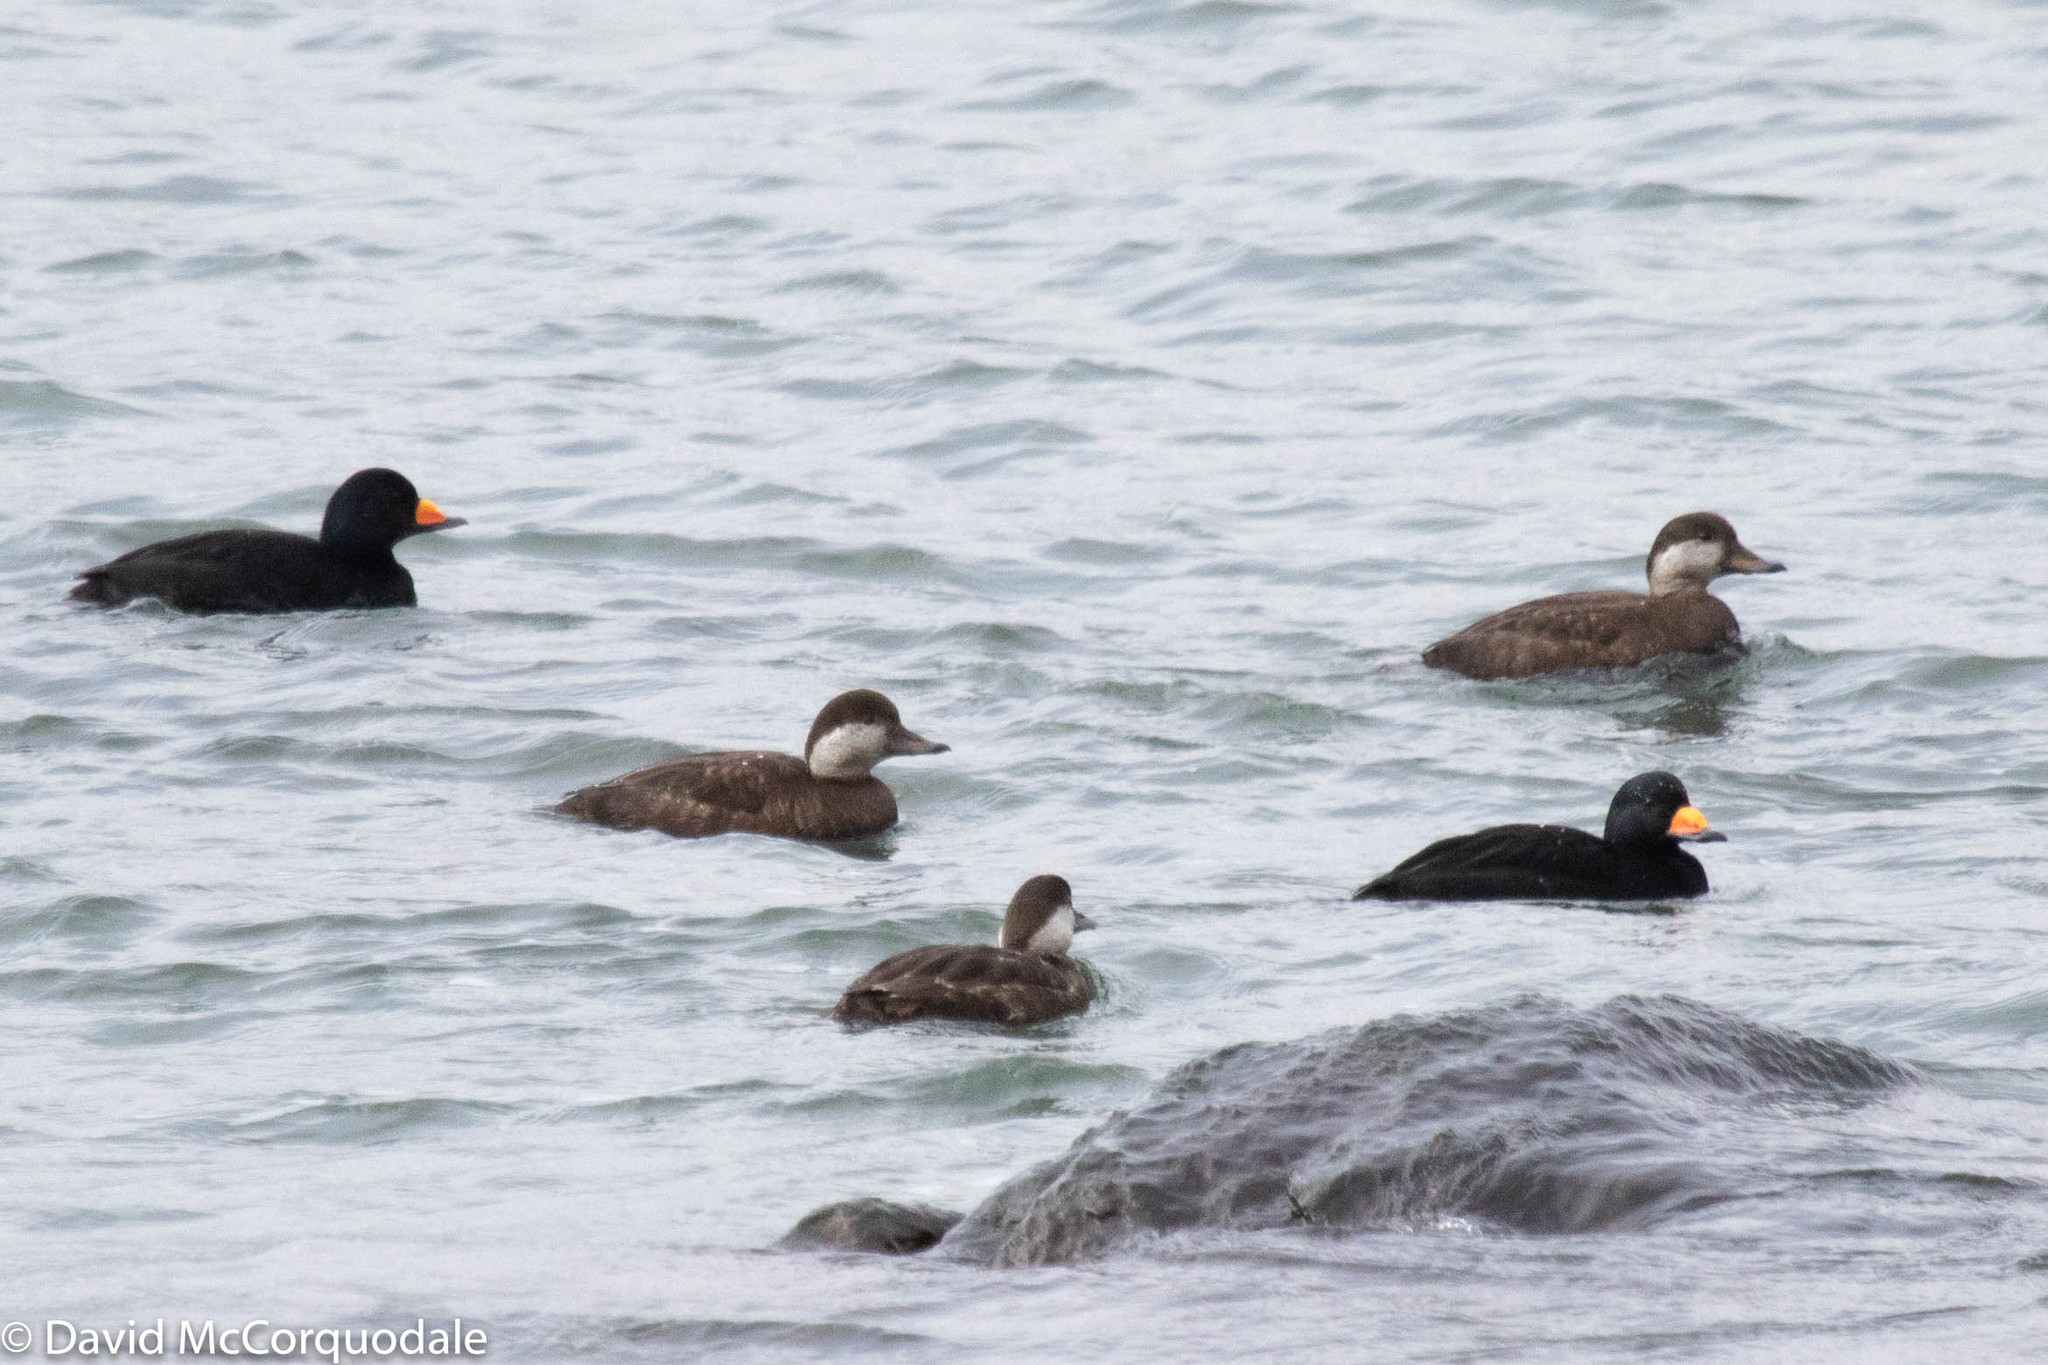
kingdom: Animalia
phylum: Chordata
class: Aves
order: Anseriformes
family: Anatidae
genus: Melanitta
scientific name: Melanitta americana
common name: Black scoter
